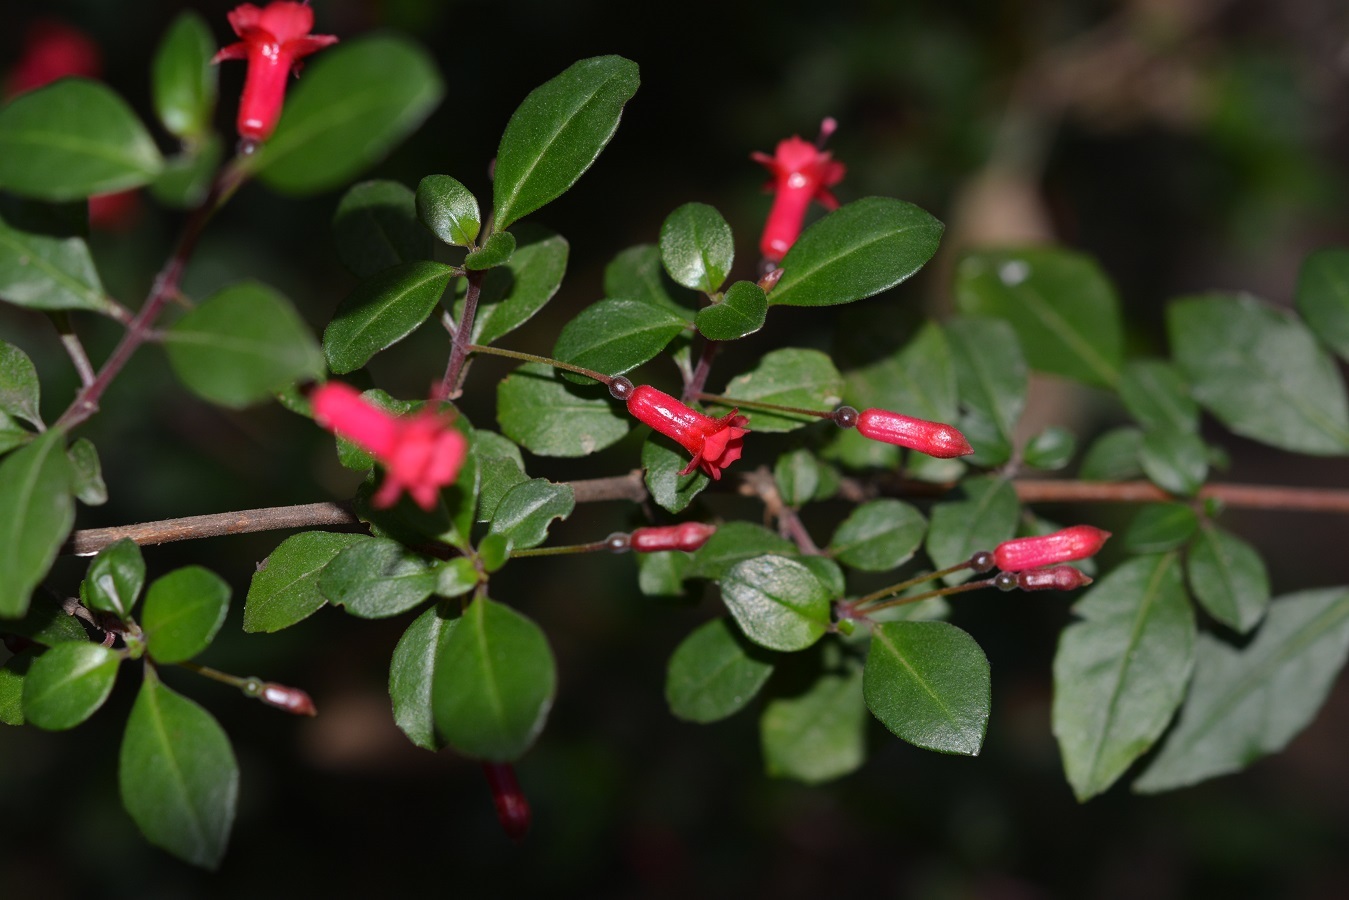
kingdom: Plantae
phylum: Tracheophyta
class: Magnoliopsida
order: Myrtales
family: Onagraceae
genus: Fuchsia
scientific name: Fuchsia microphylla
